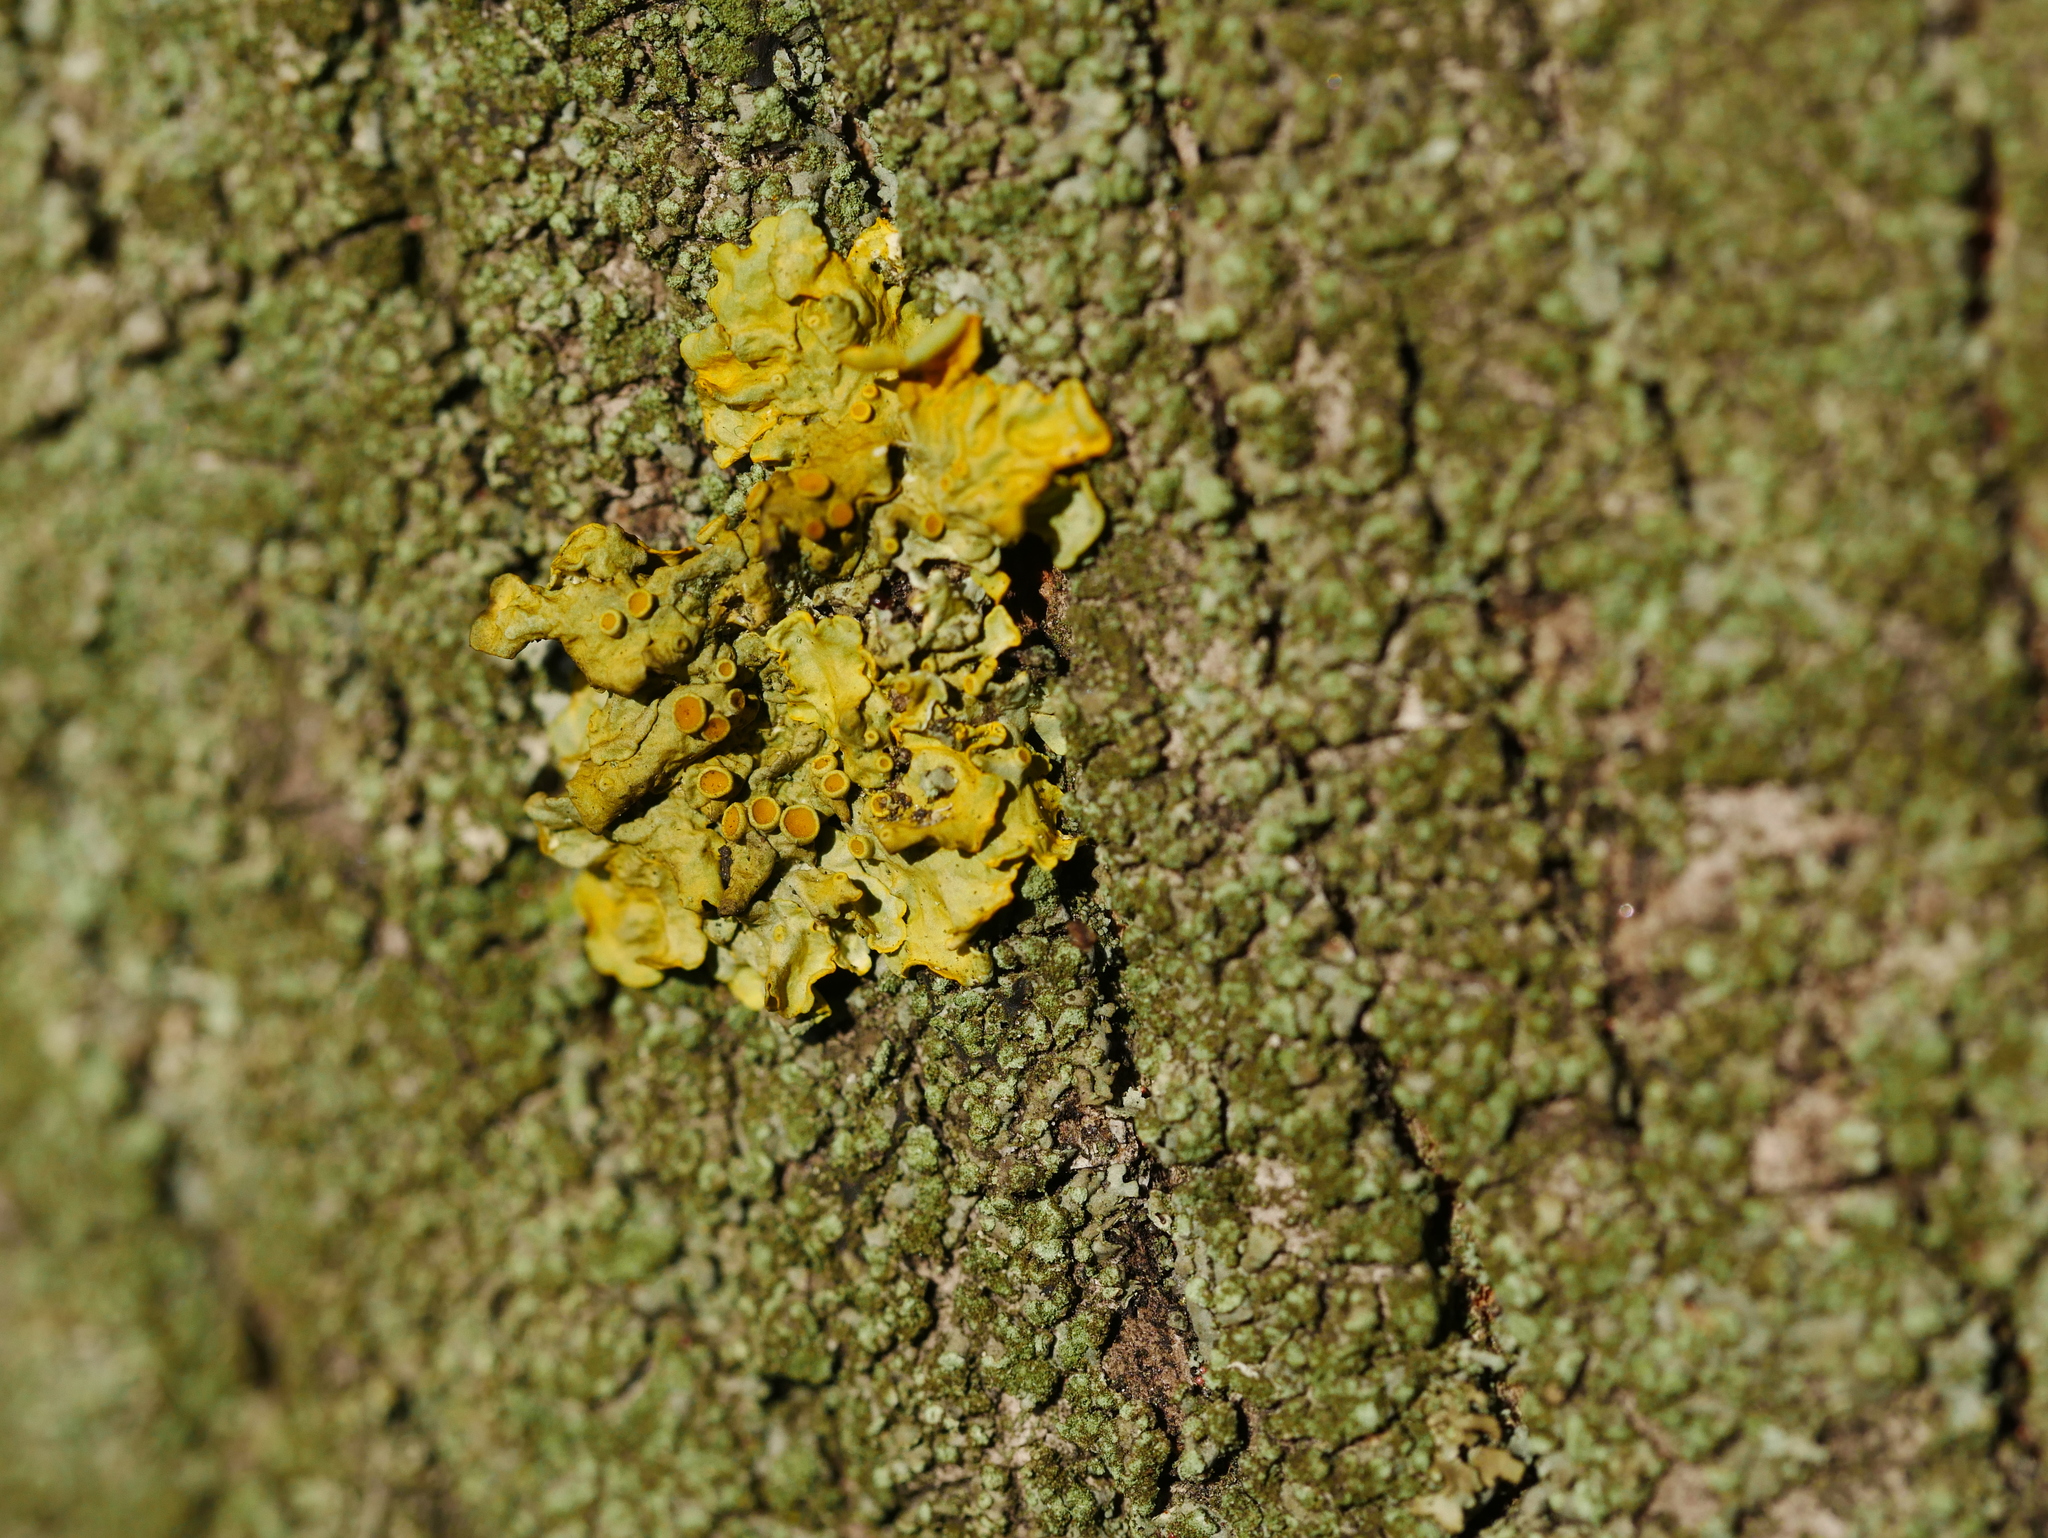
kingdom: Fungi
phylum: Ascomycota
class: Lecanoromycetes
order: Teloschistales
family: Teloschistaceae
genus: Xanthoria
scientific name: Xanthoria parietina
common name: Common orange lichen
